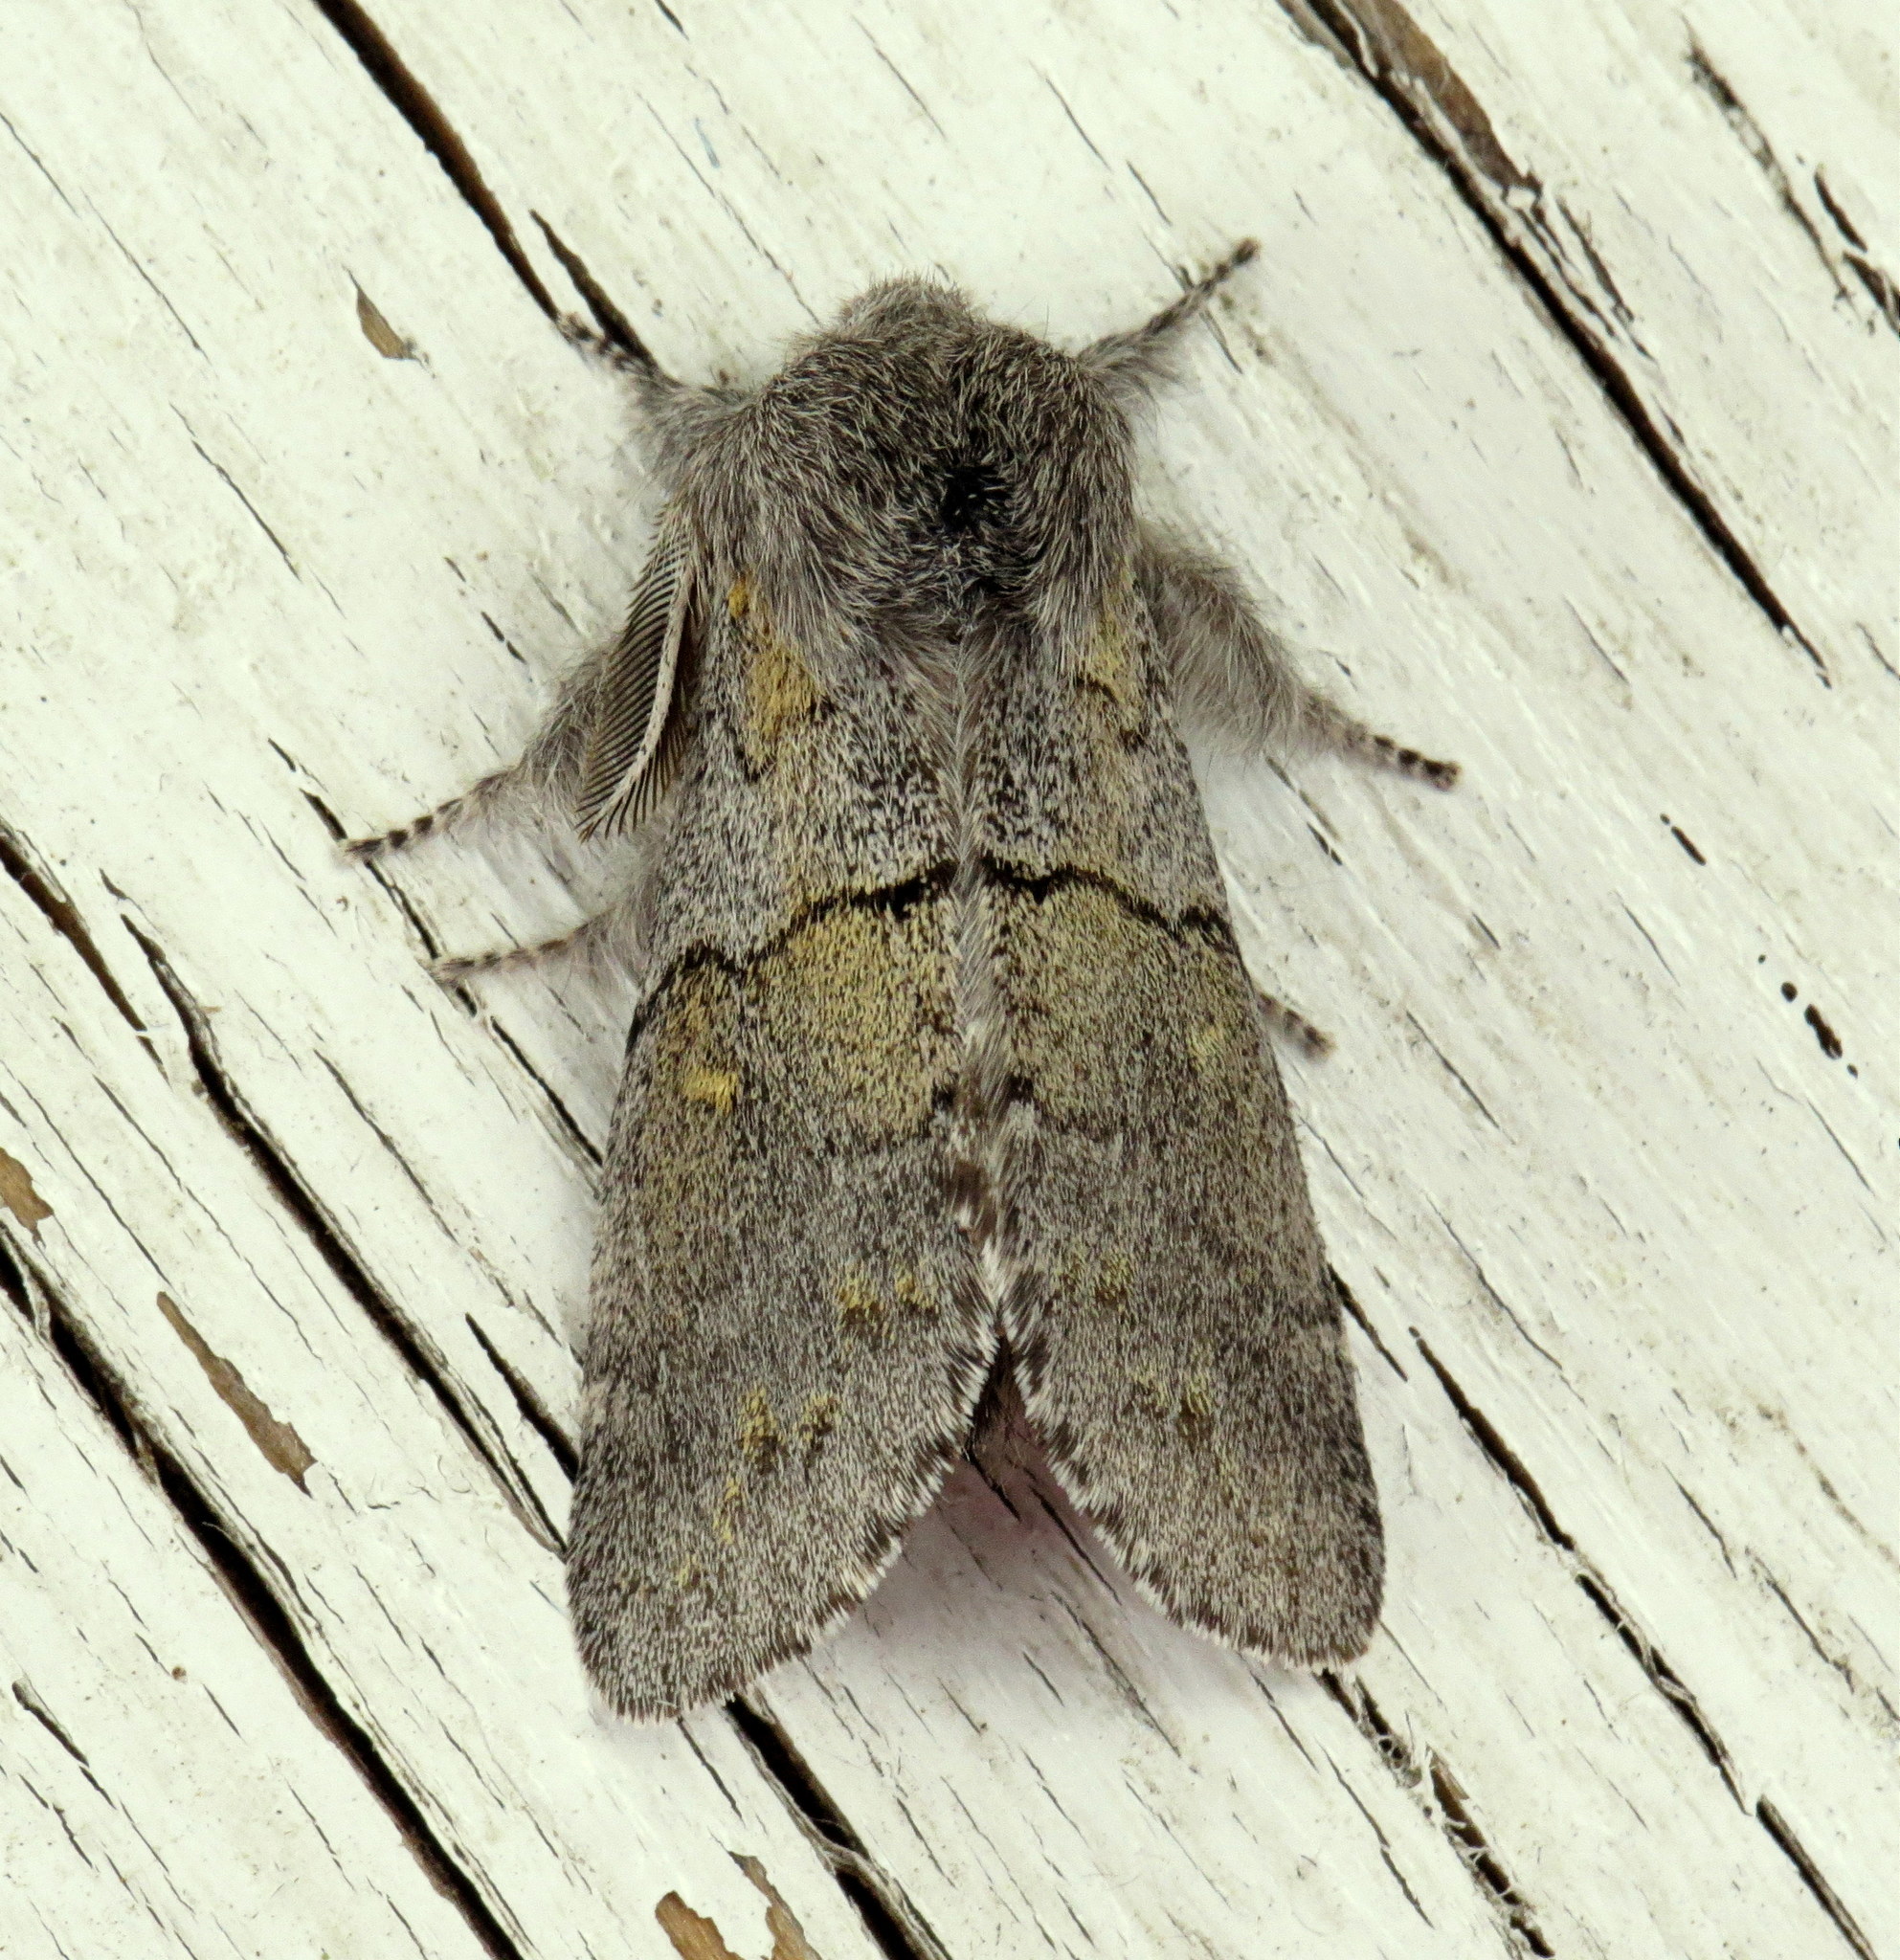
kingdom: Animalia
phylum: Arthropoda
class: Insecta
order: Lepidoptera
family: Notodontidae
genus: Gluphisia
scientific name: Gluphisia lintneri
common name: Lintner's gluphisia moth
